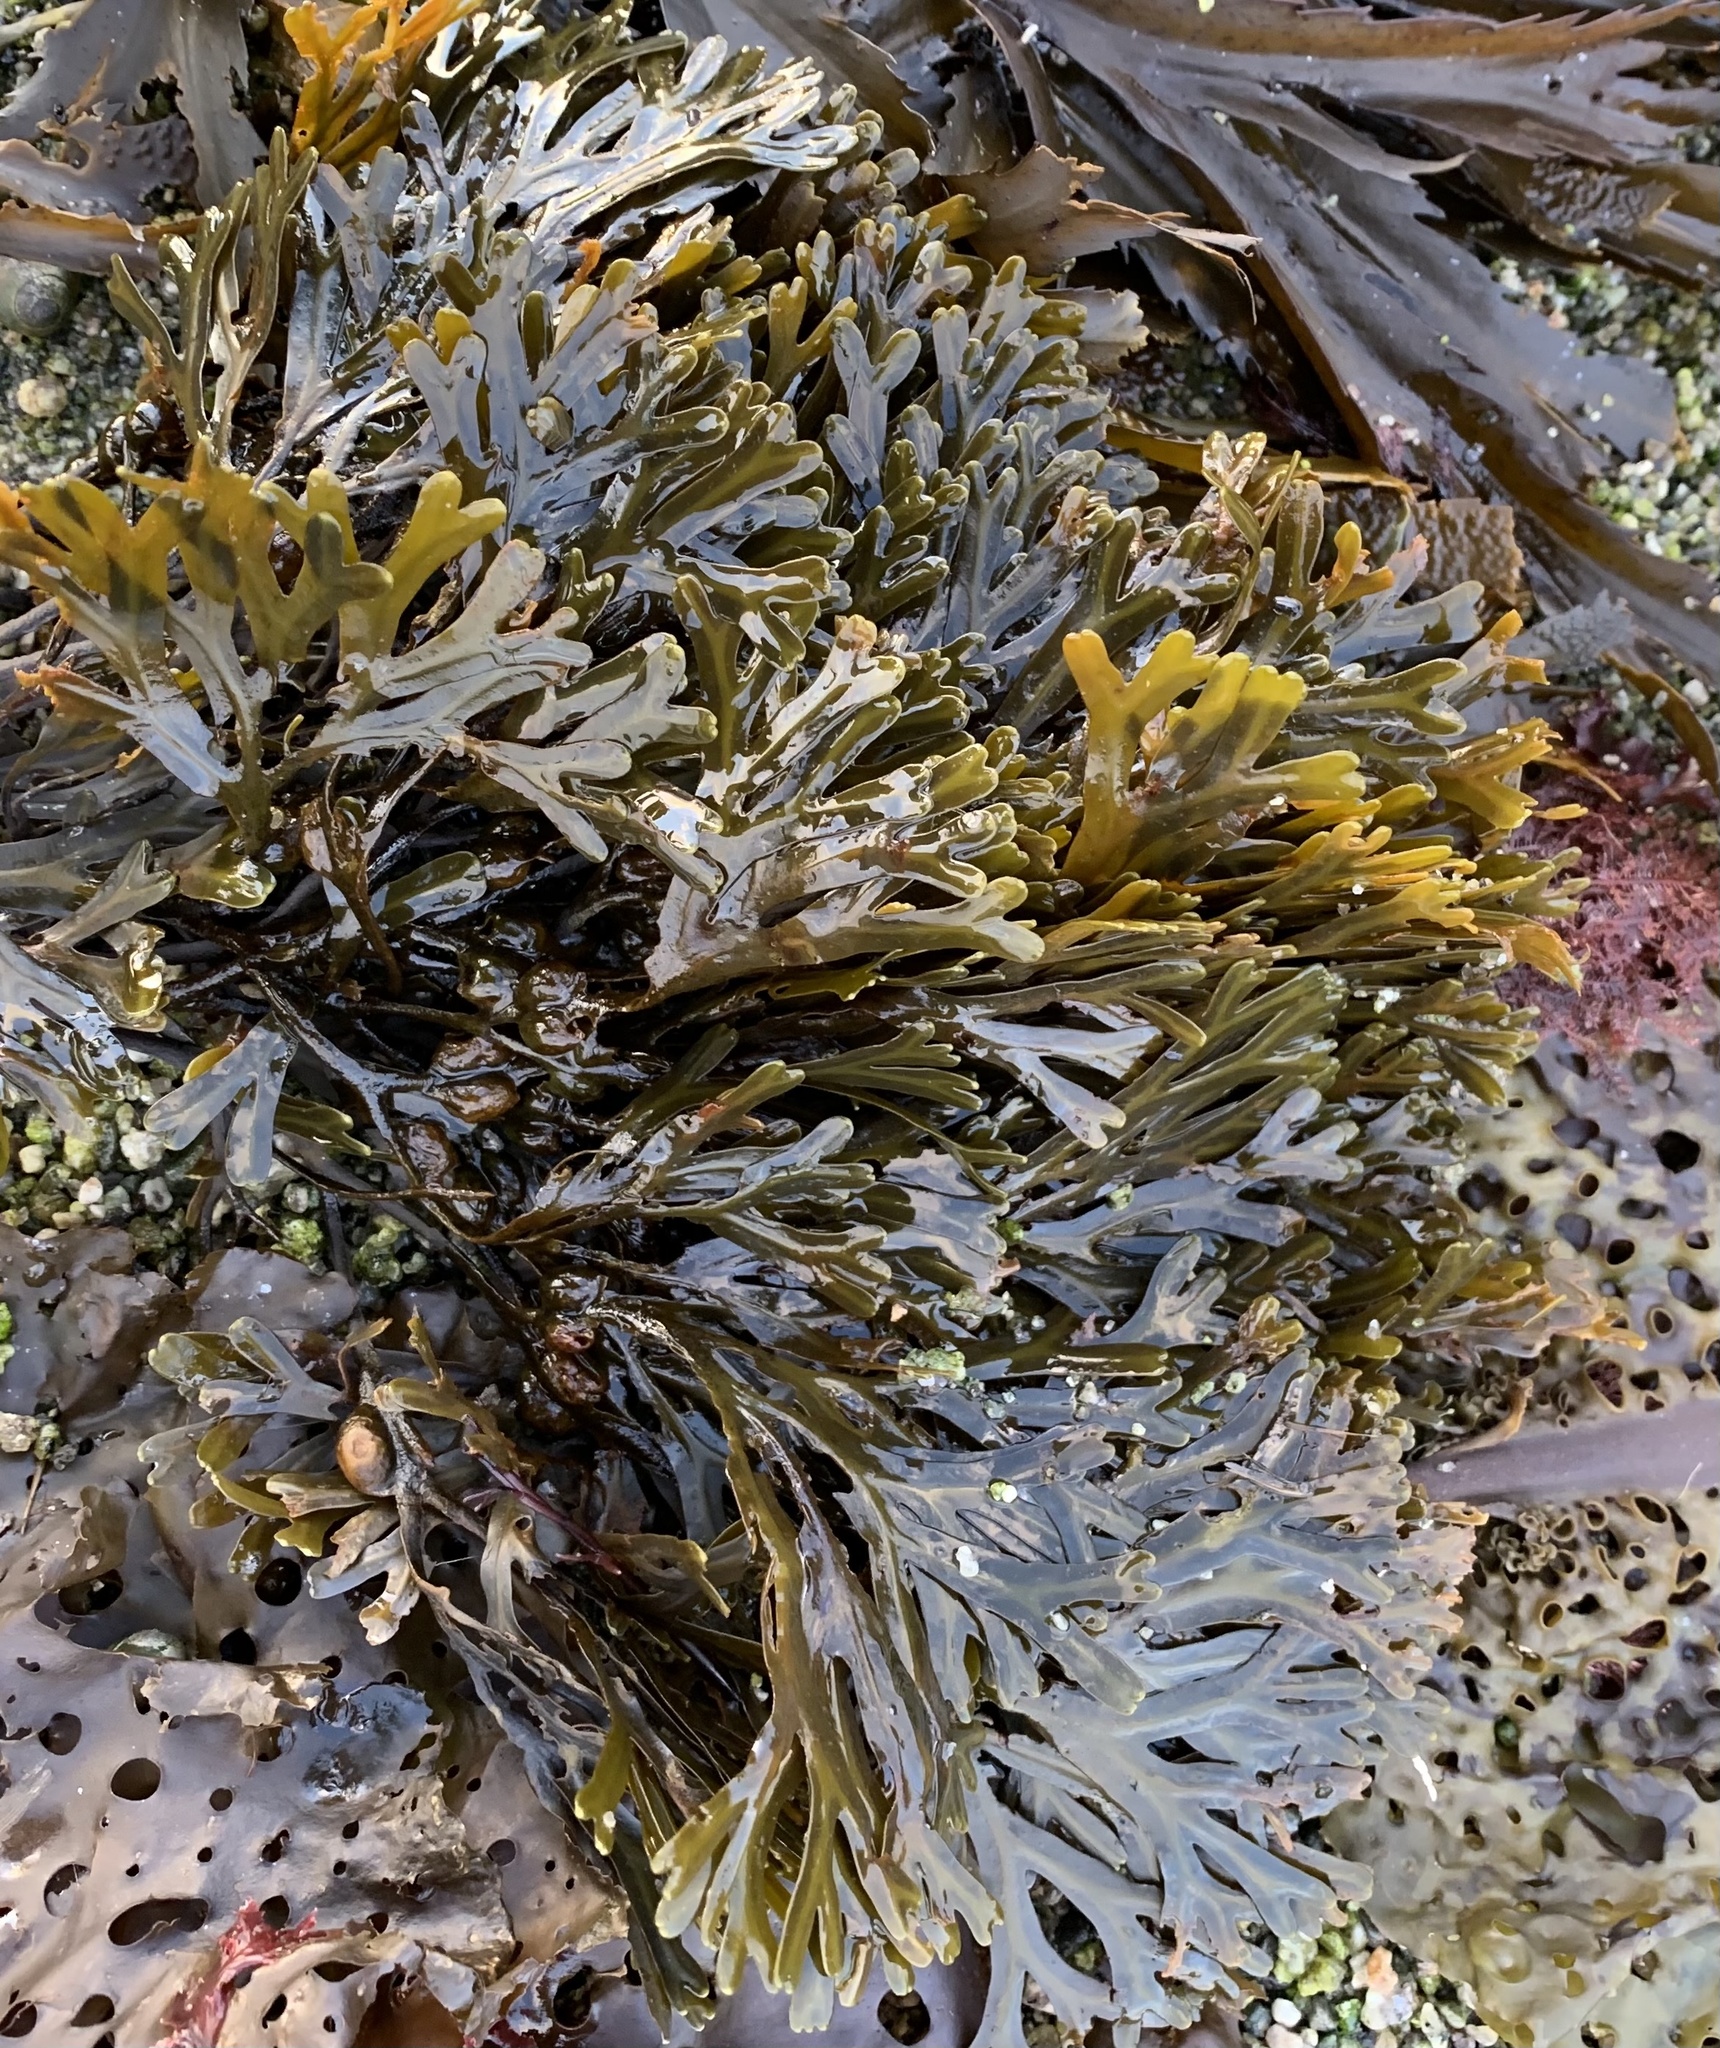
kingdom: Chromista
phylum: Ochrophyta
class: Phaeophyceae
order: Fucales
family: Fucaceae
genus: Fucus
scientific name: Fucus distichus
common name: Rockweed
